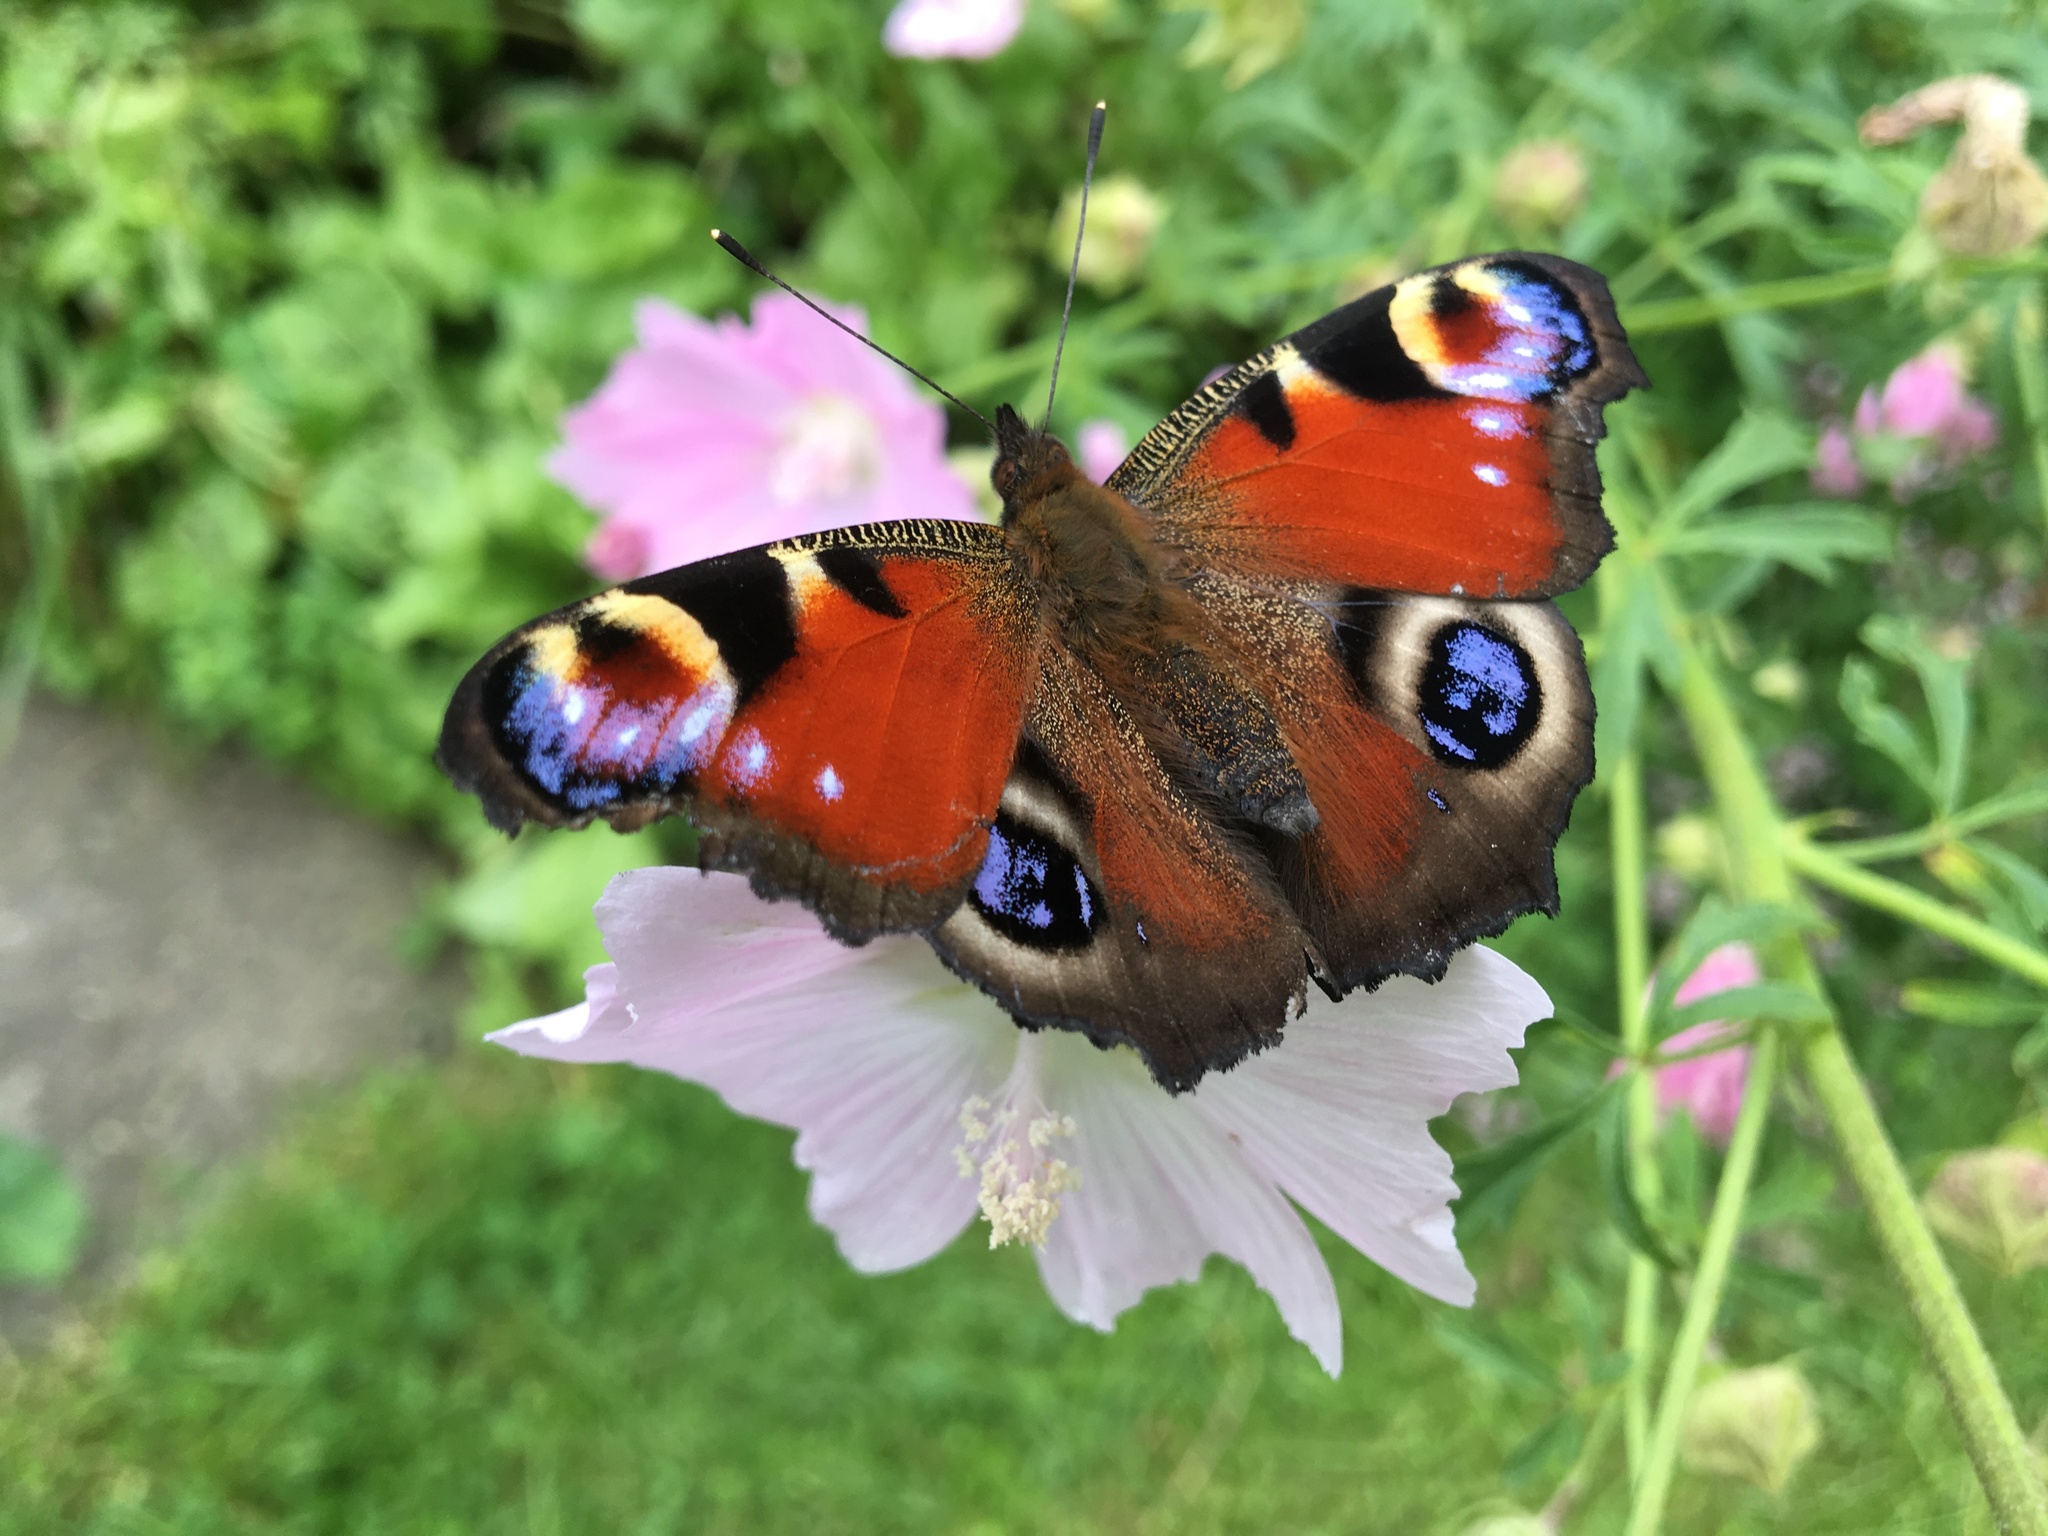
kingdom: Animalia
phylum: Arthropoda
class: Insecta
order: Lepidoptera
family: Nymphalidae
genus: Aglais
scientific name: Aglais io
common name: Peacock
